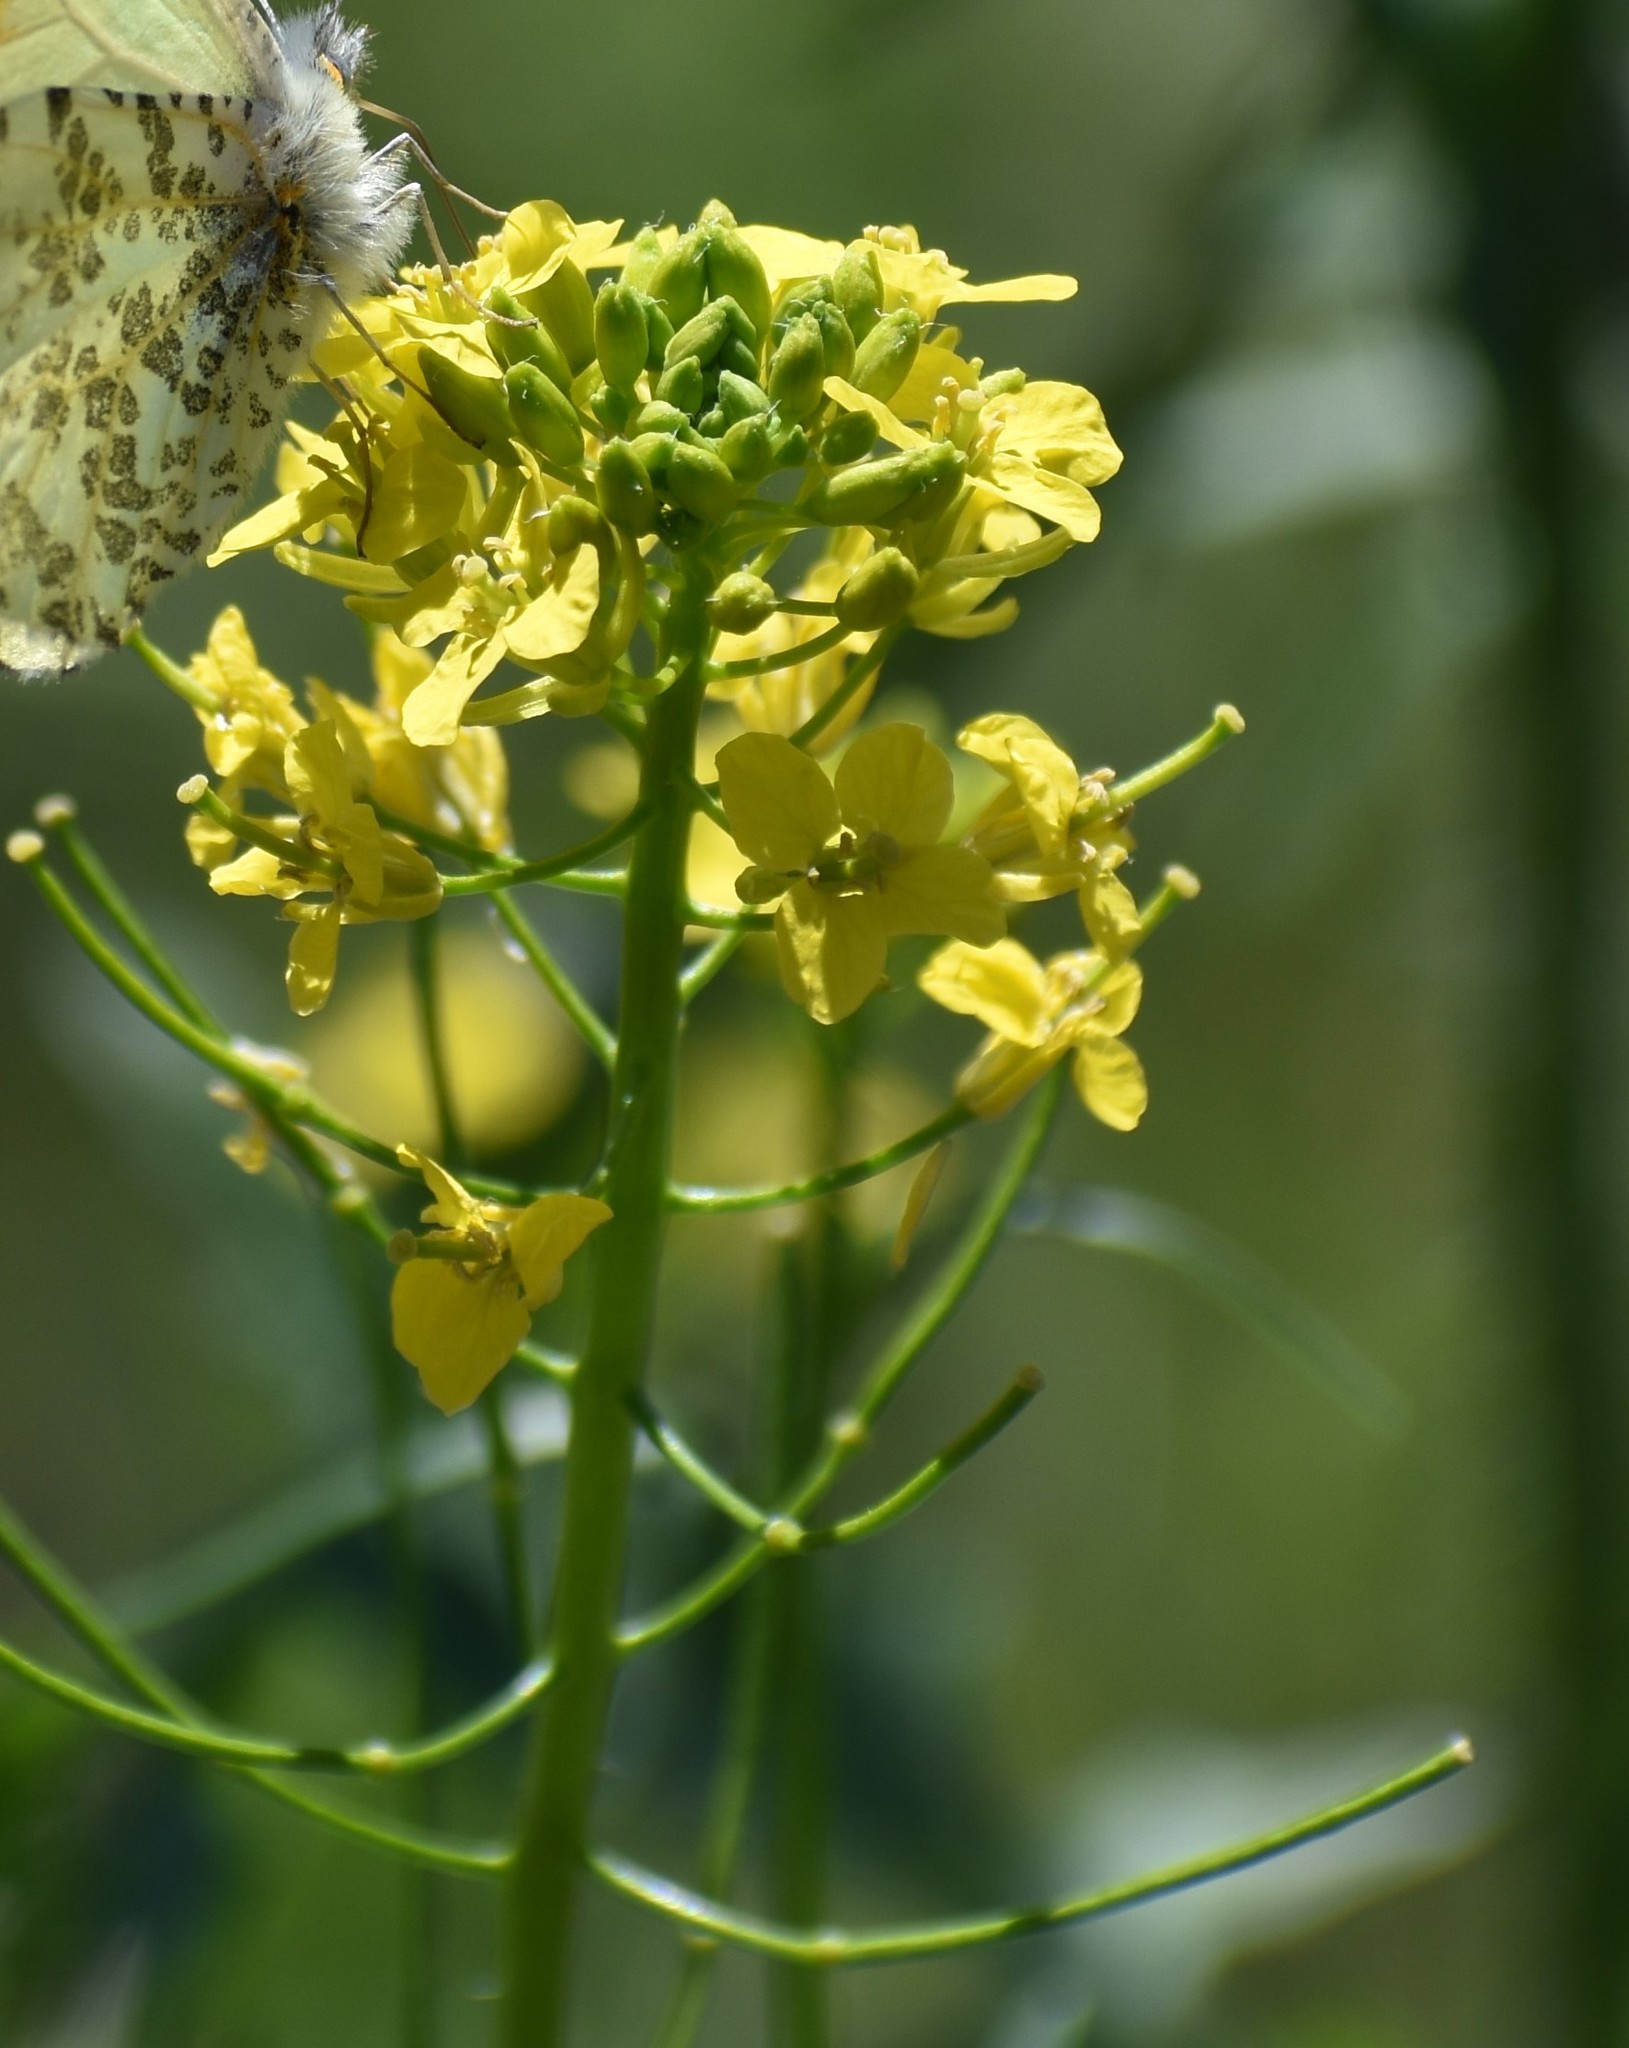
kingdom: Plantae
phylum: Tracheophyta
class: Magnoliopsida
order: Brassicales
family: Brassicaceae
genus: Sisymbrium
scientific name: Sisymbrium loeselii
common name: False london-rocket
